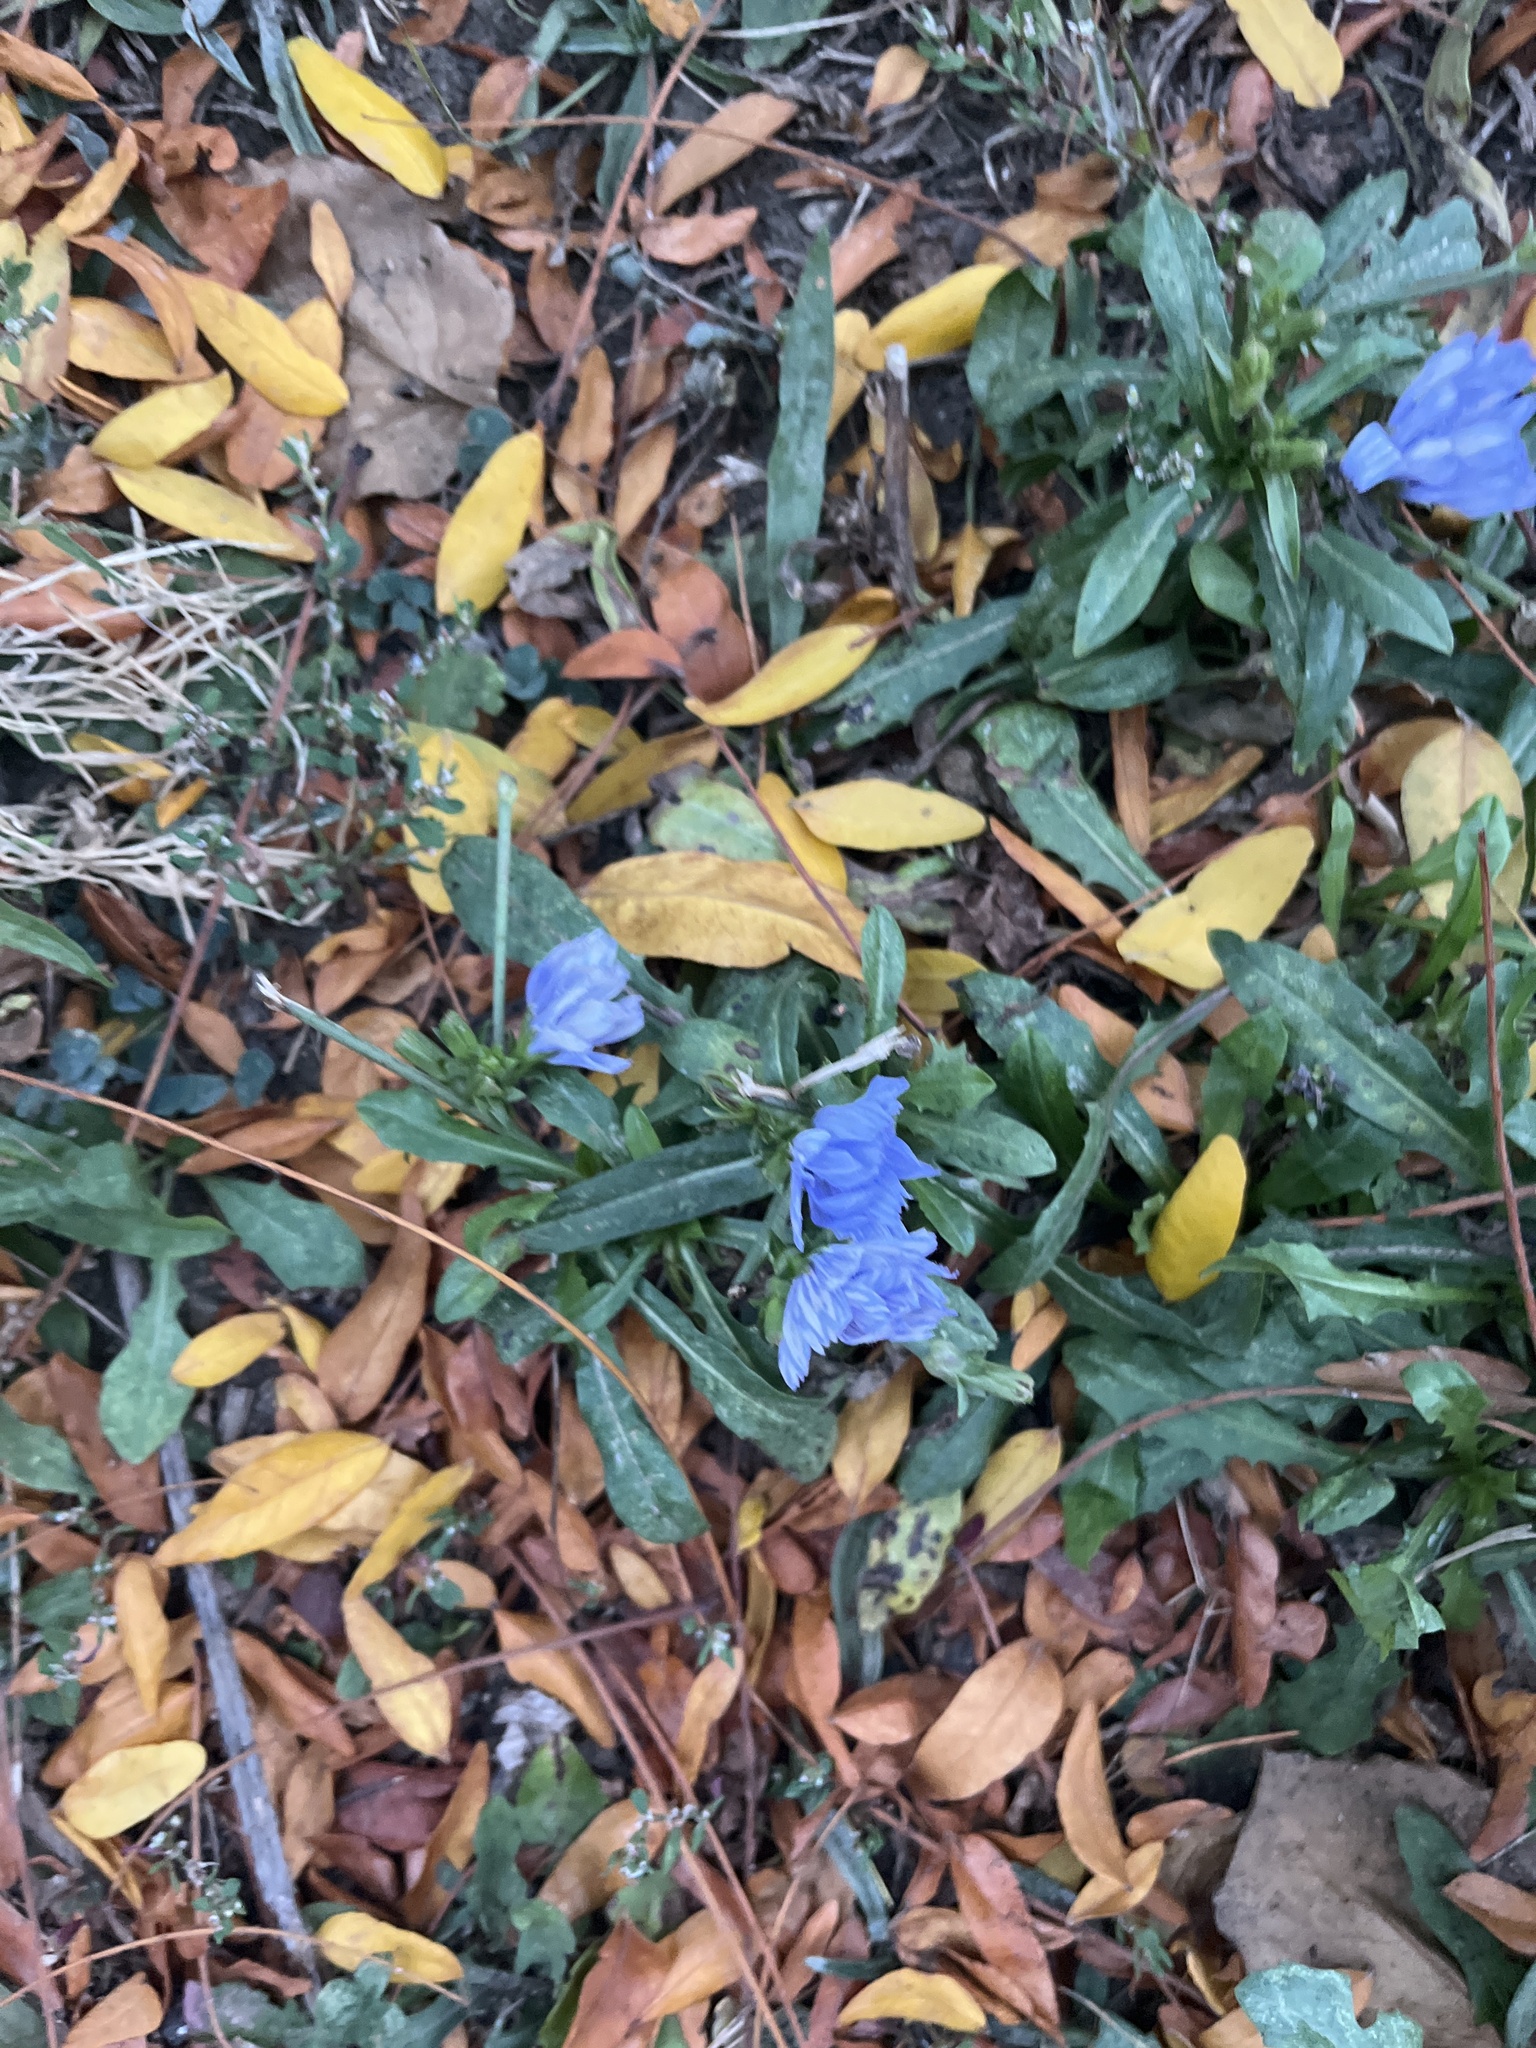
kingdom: Plantae
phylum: Tracheophyta
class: Magnoliopsida
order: Asterales
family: Asteraceae
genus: Cichorium
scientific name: Cichorium intybus
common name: Chicory
